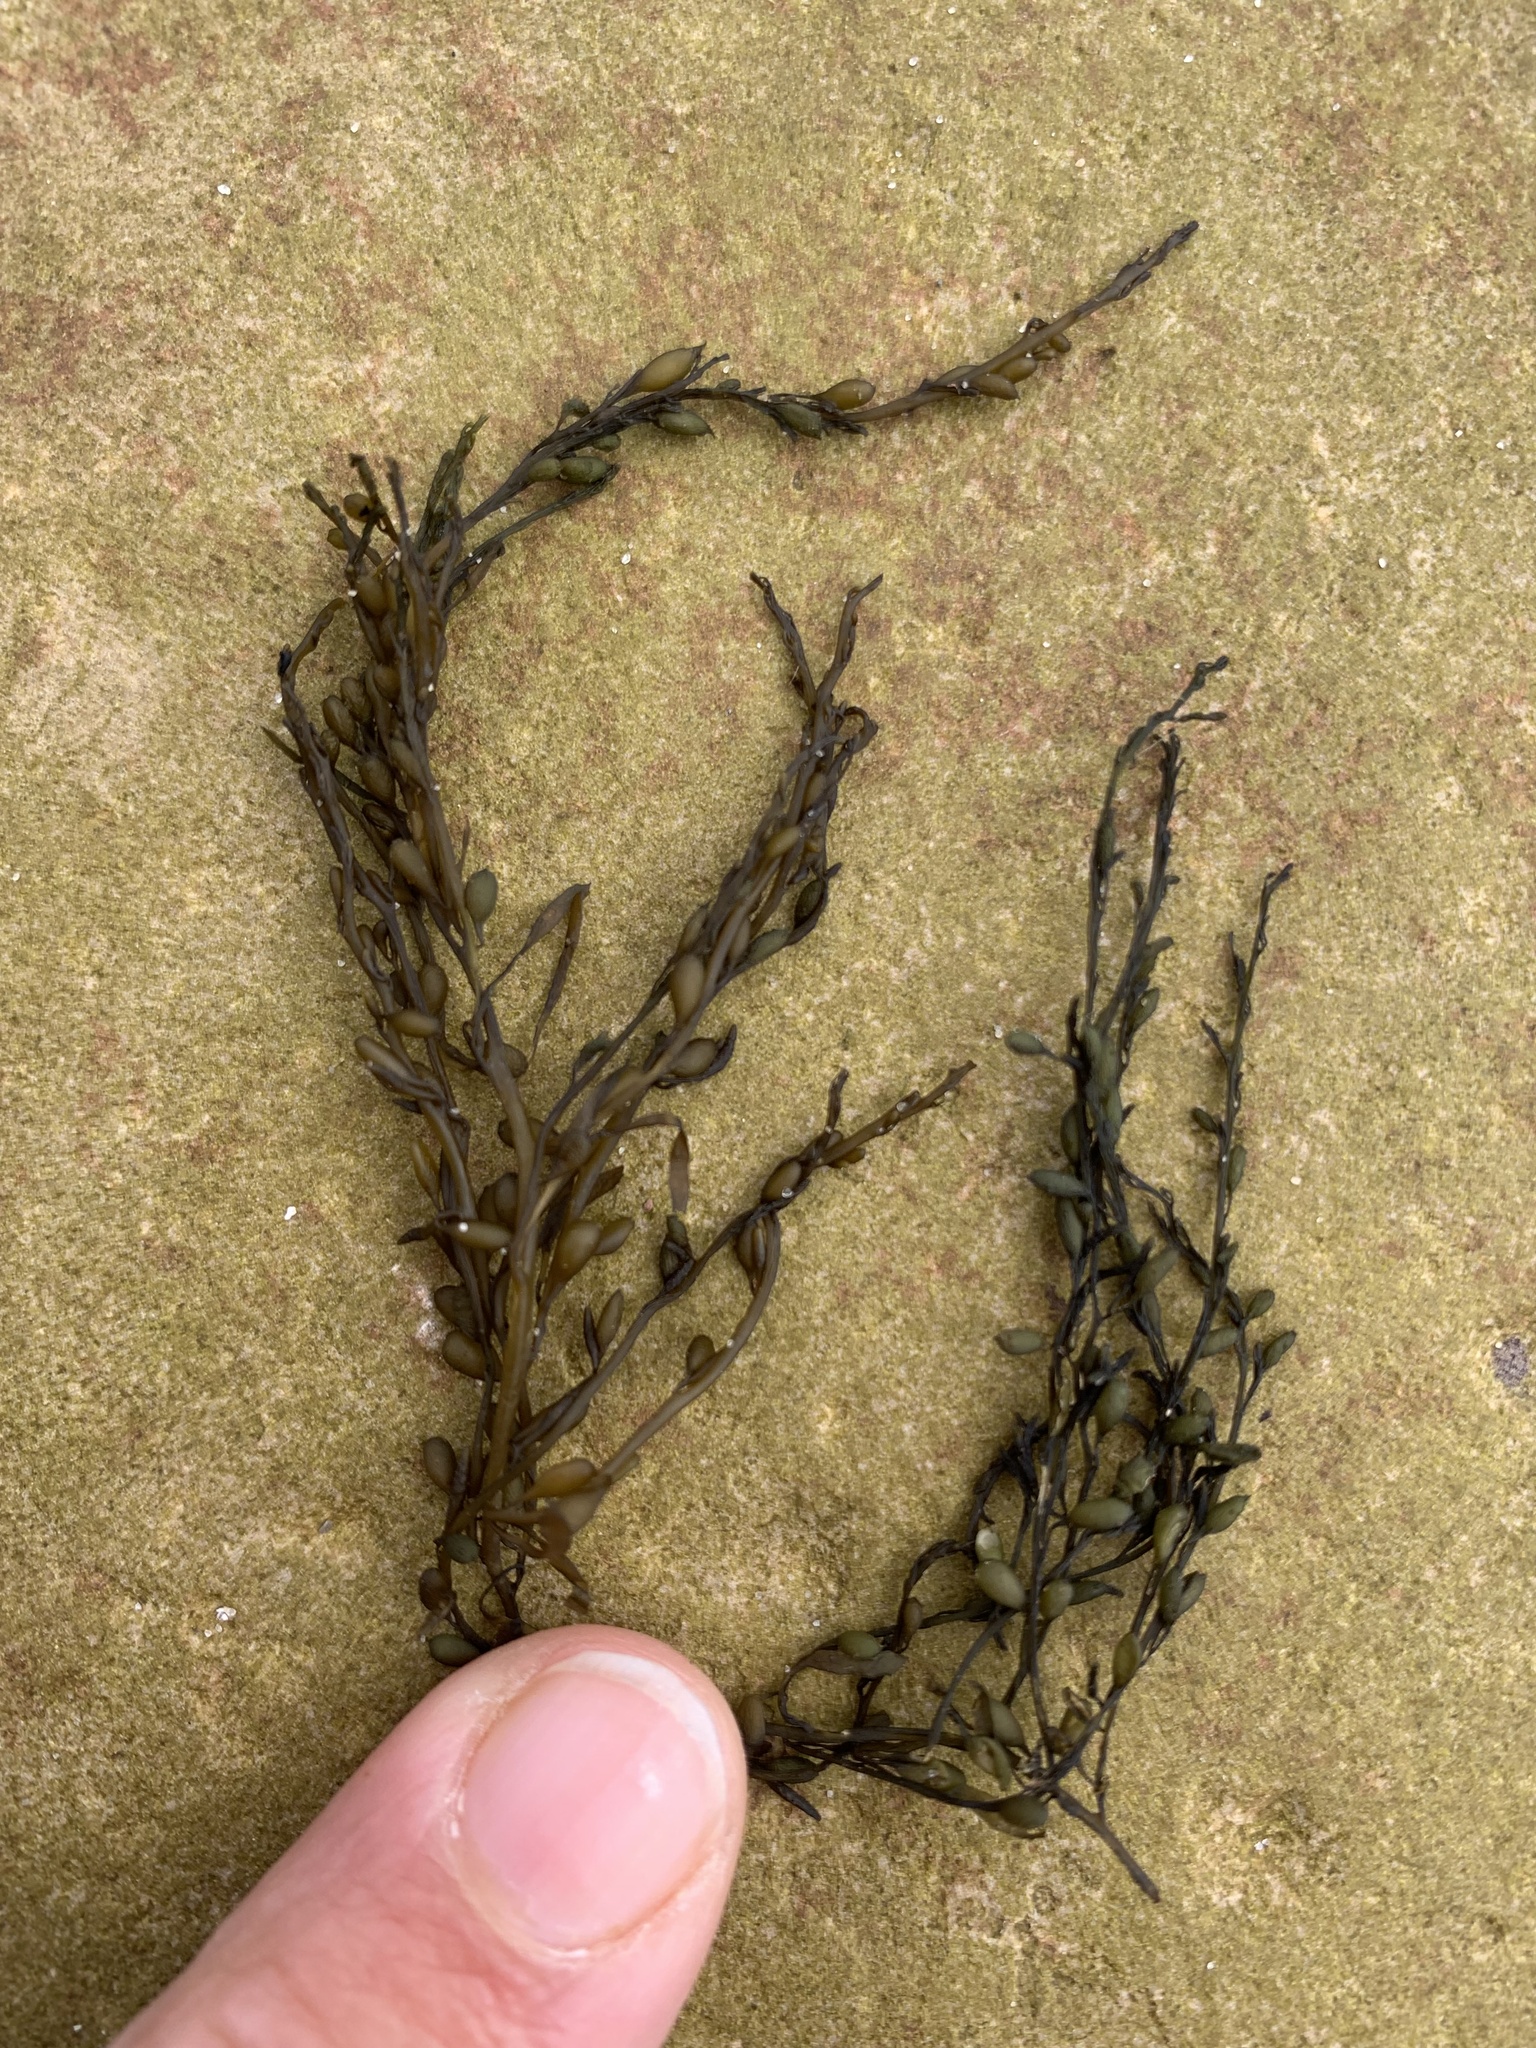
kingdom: Chromista
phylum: Ochrophyta
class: Phaeophyceae
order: Fucales
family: Sargassaceae
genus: Sargassum
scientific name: Sargassum muticum
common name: Japweed
